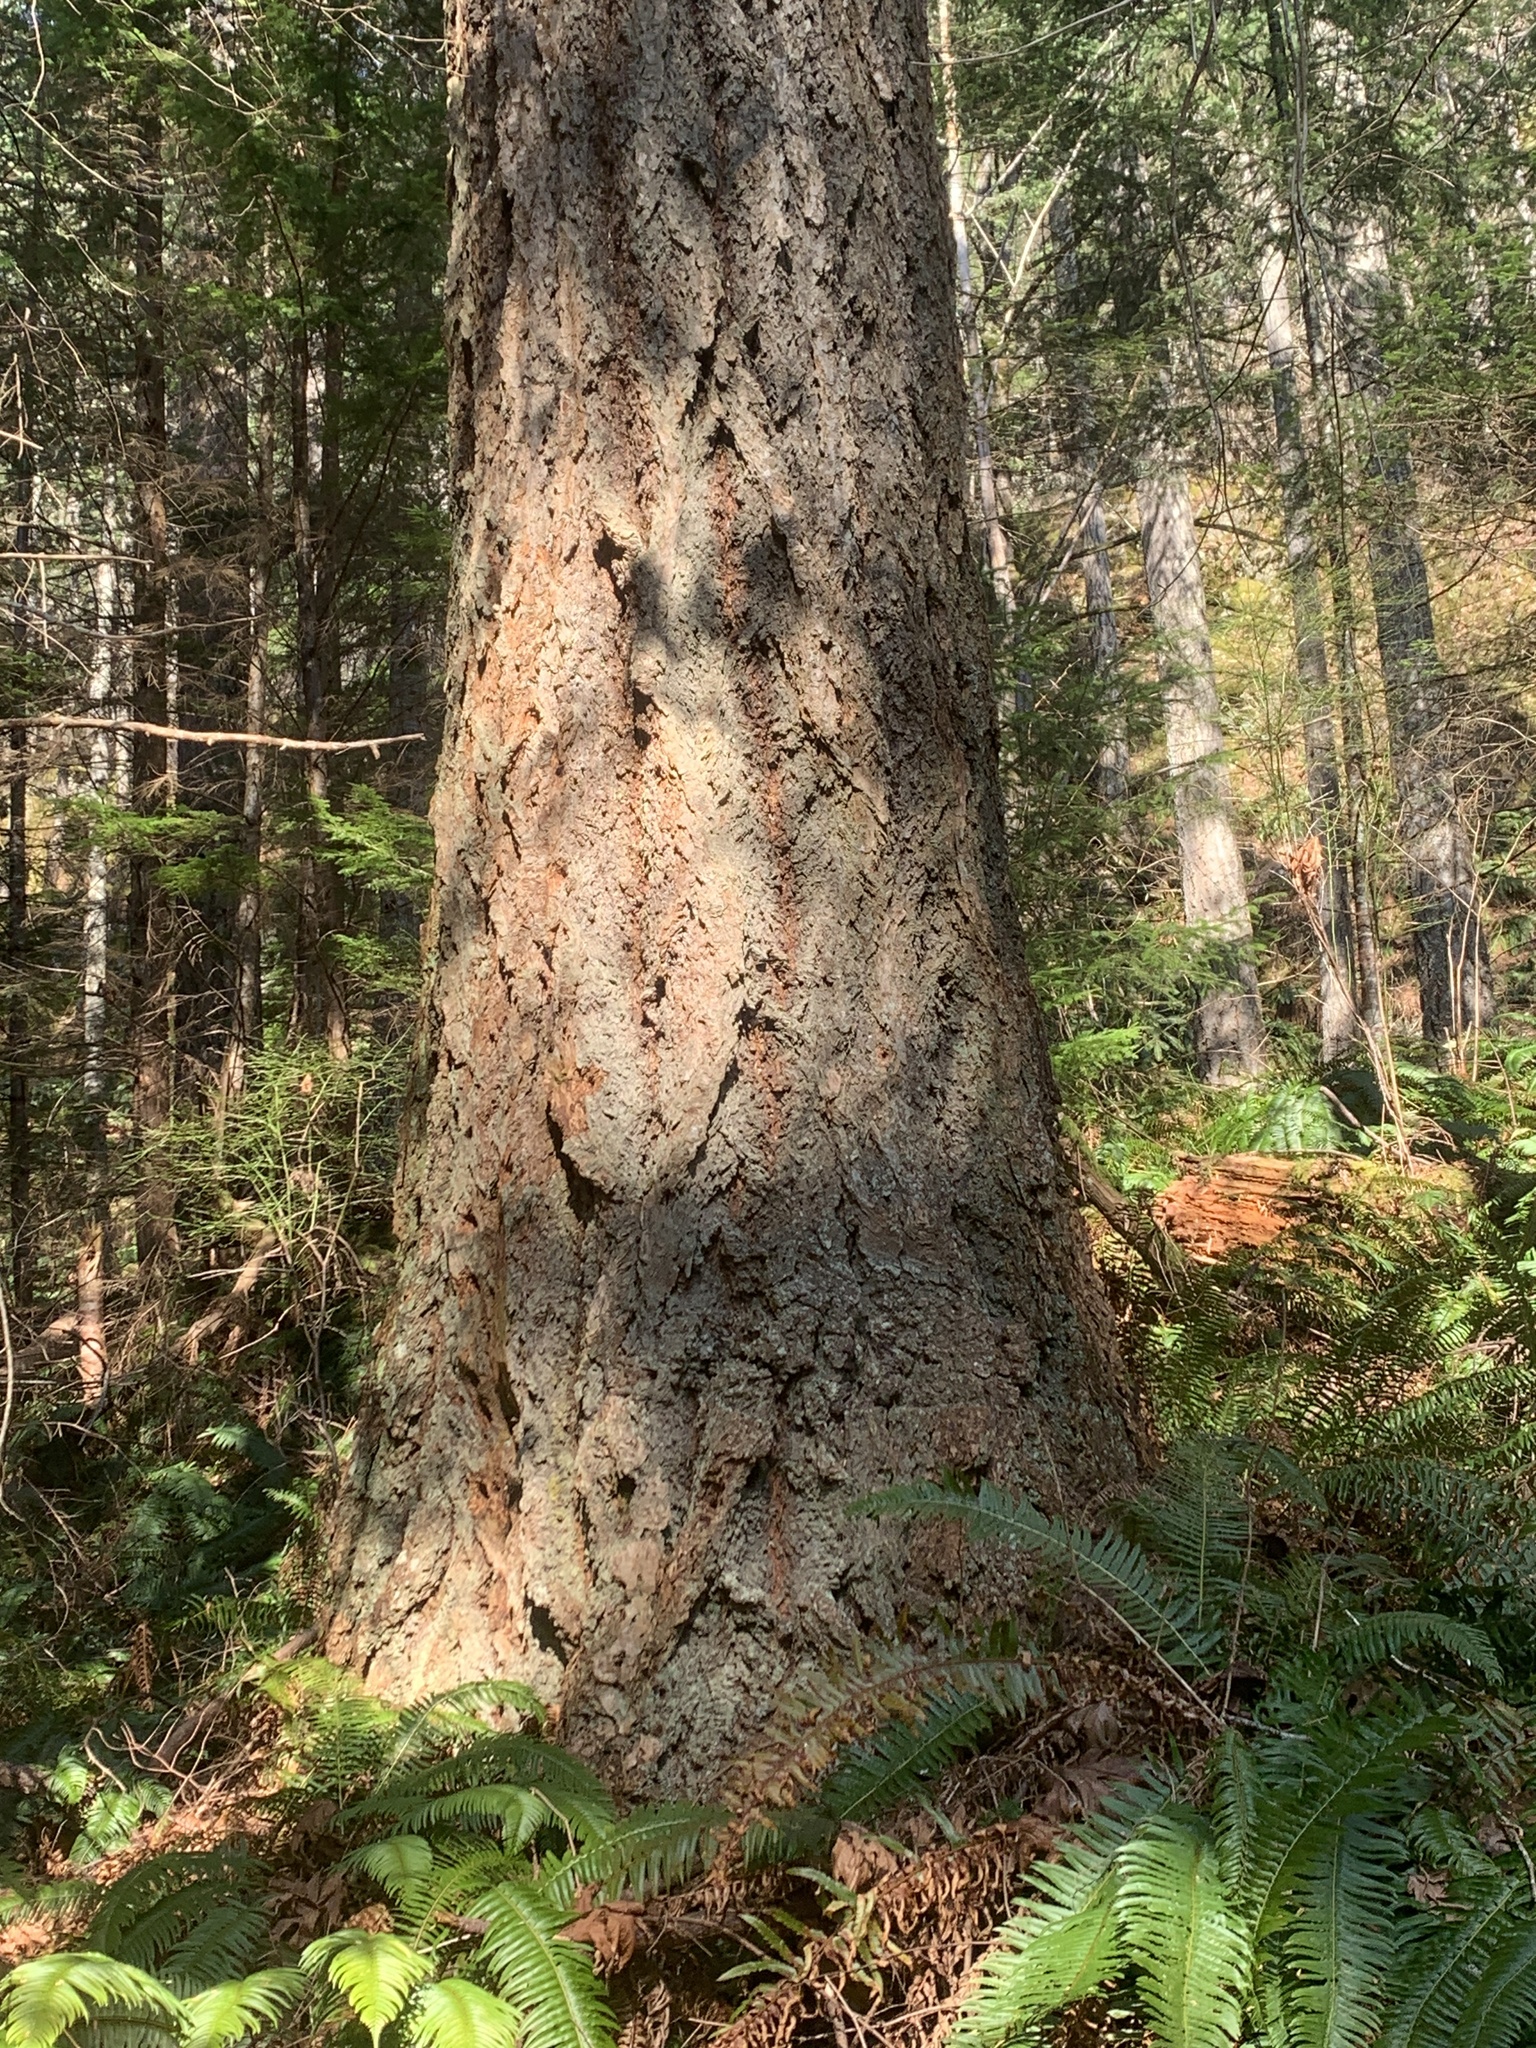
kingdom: Plantae
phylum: Tracheophyta
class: Pinopsida
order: Pinales
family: Pinaceae
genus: Pseudotsuga
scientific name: Pseudotsuga menziesii
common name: Douglas fir
